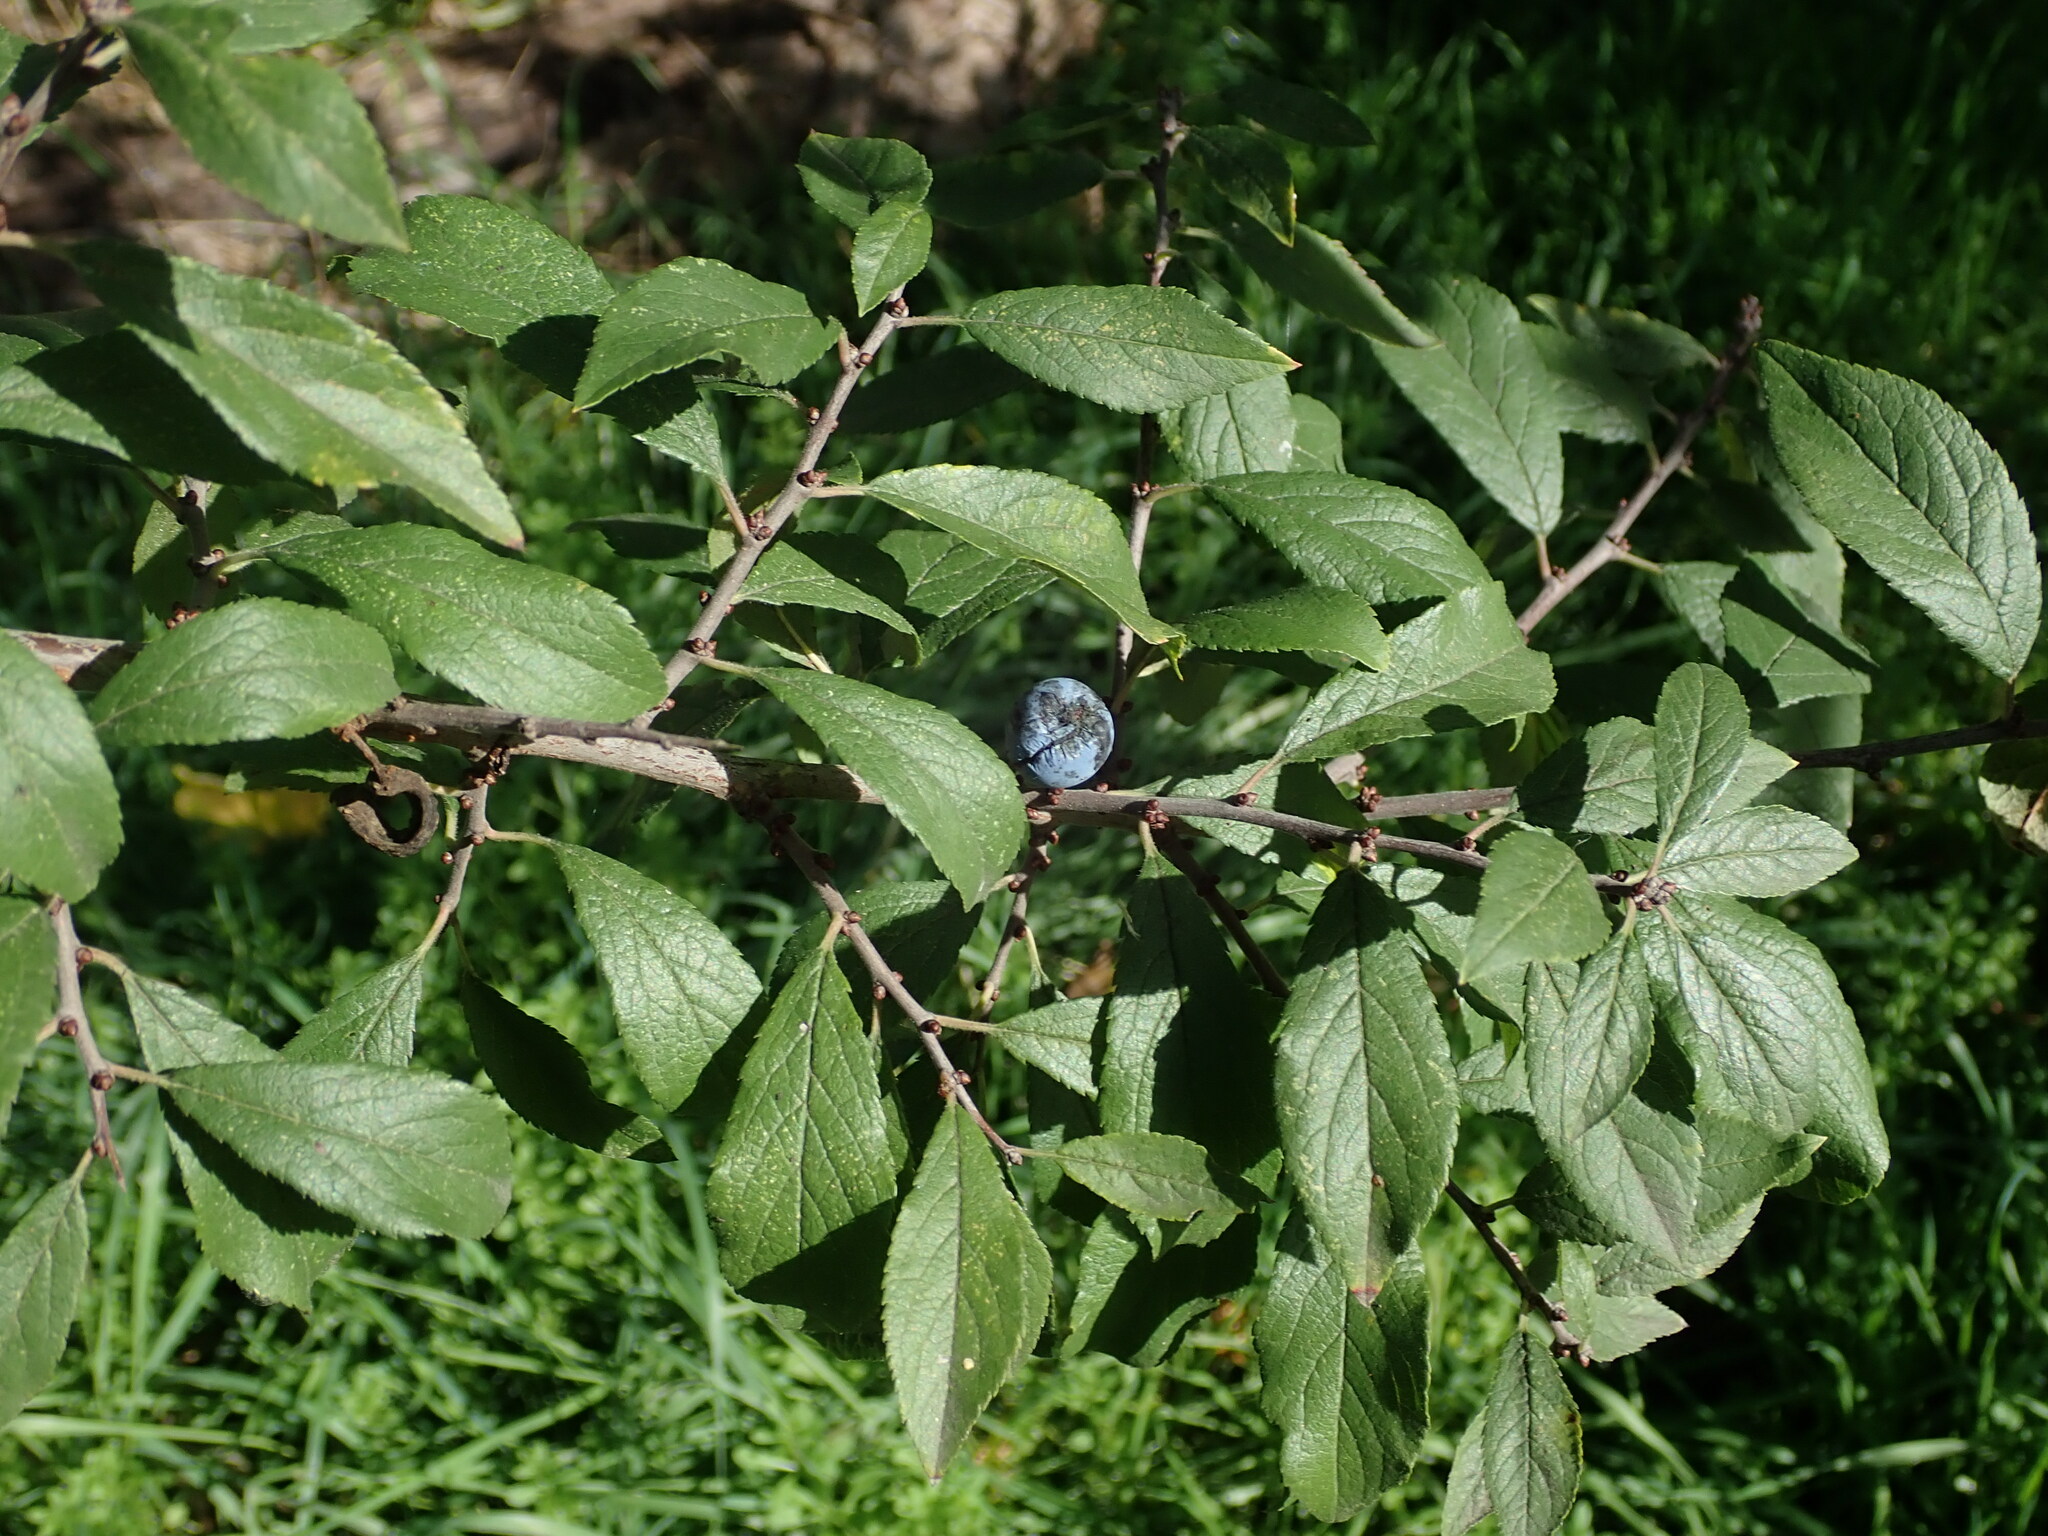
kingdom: Plantae
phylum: Tracheophyta
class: Magnoliopsida
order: Rosales
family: Rosaceae
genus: Prunus
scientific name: Prunus spinosa
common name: Blackthorn
